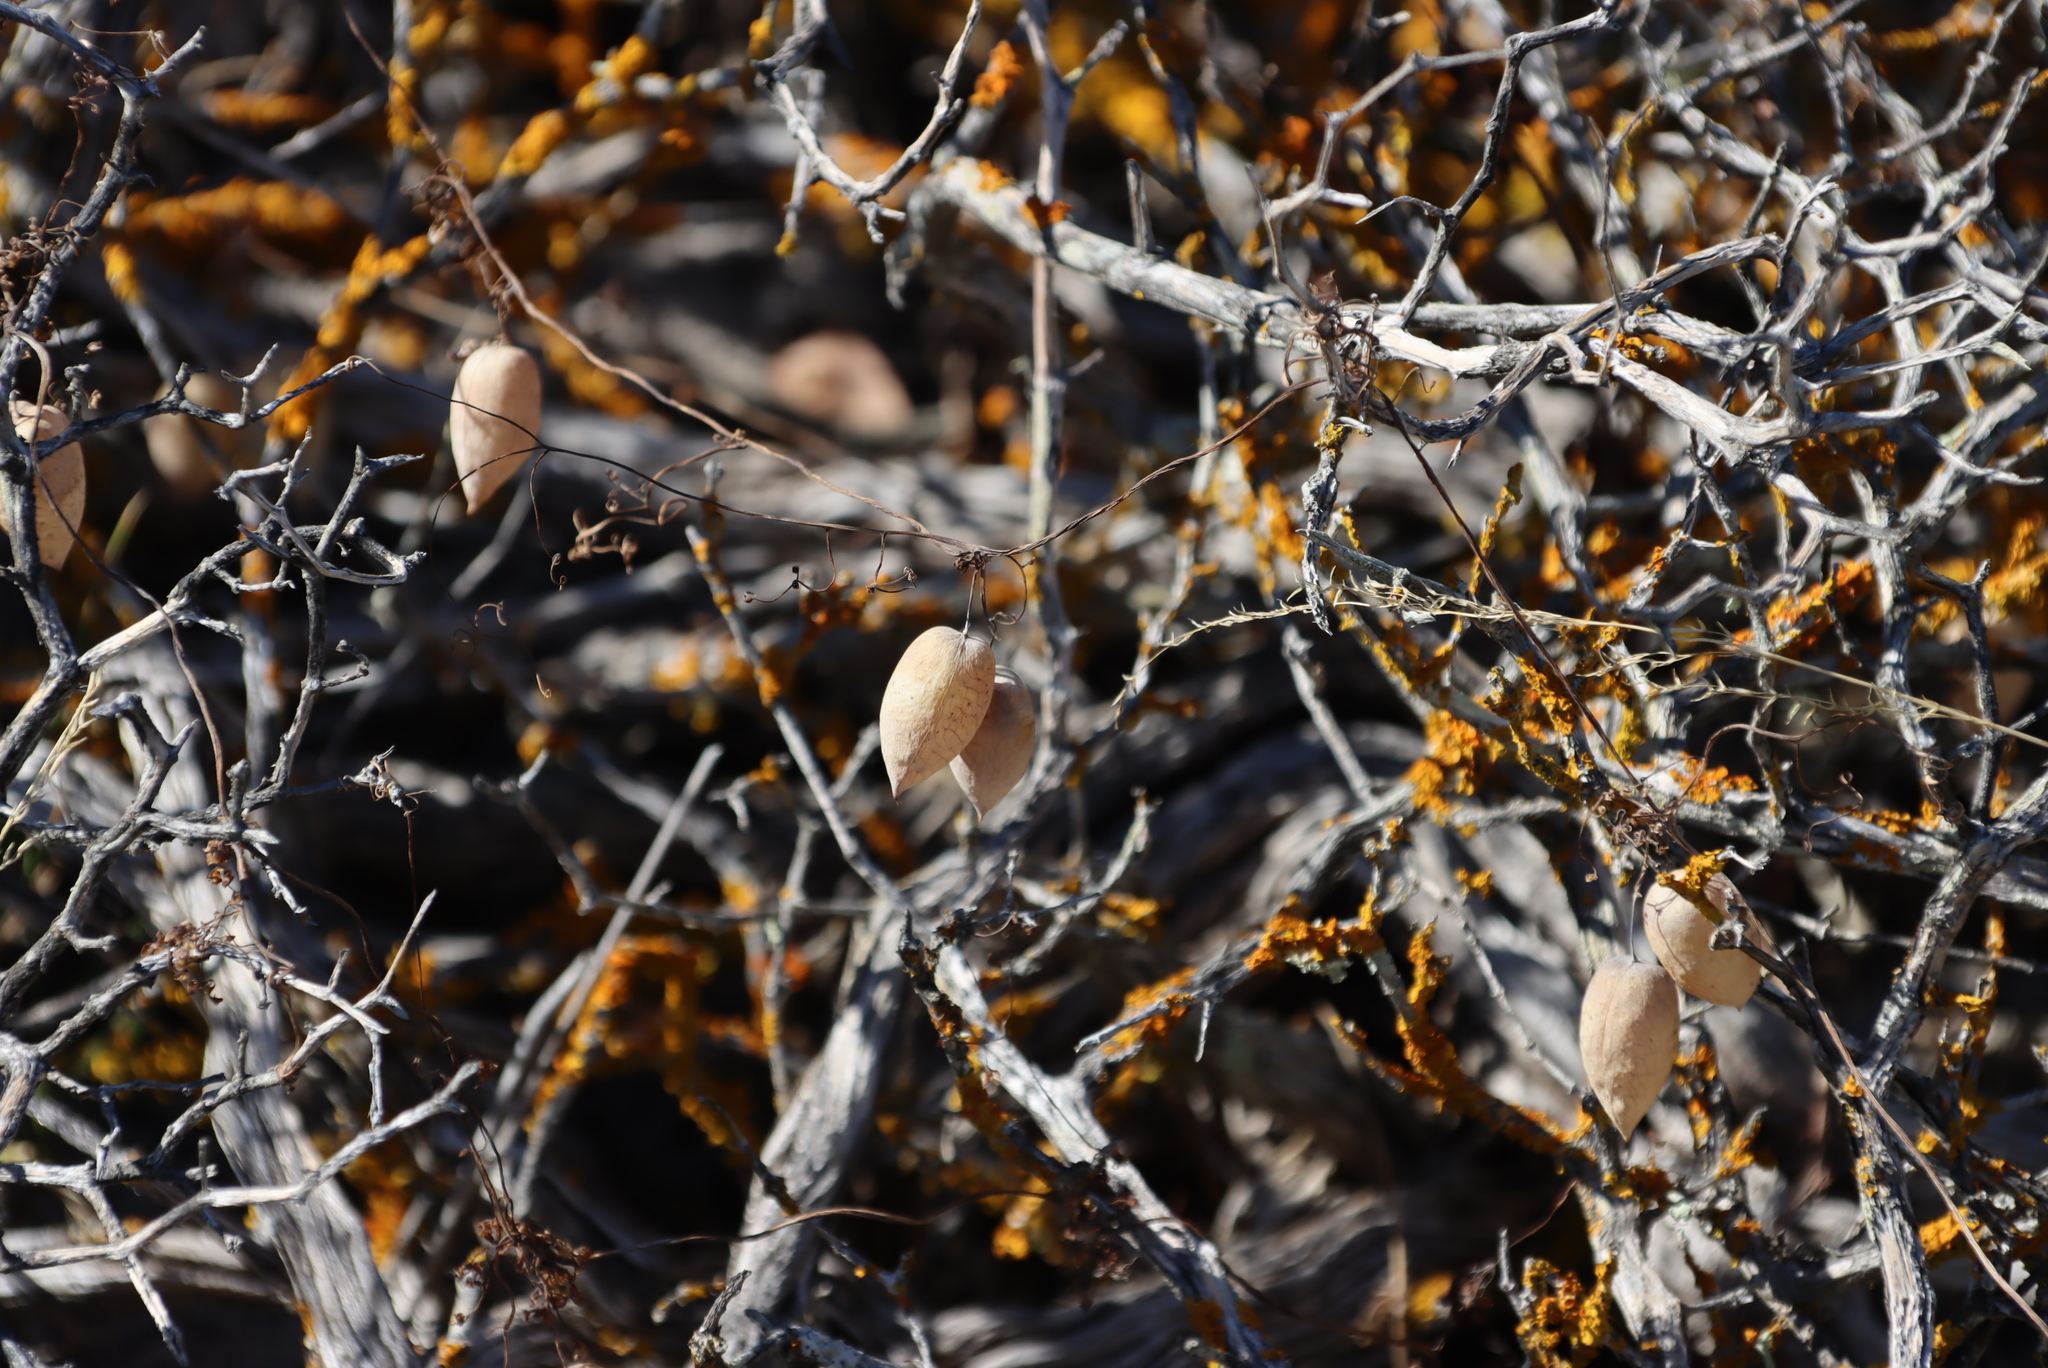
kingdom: Plantae
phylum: Tracheophyta
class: Magnoliopsida
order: Ranunculales
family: Papaveraceae
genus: Cysticapnos
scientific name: Cysticapnos vesicaria
